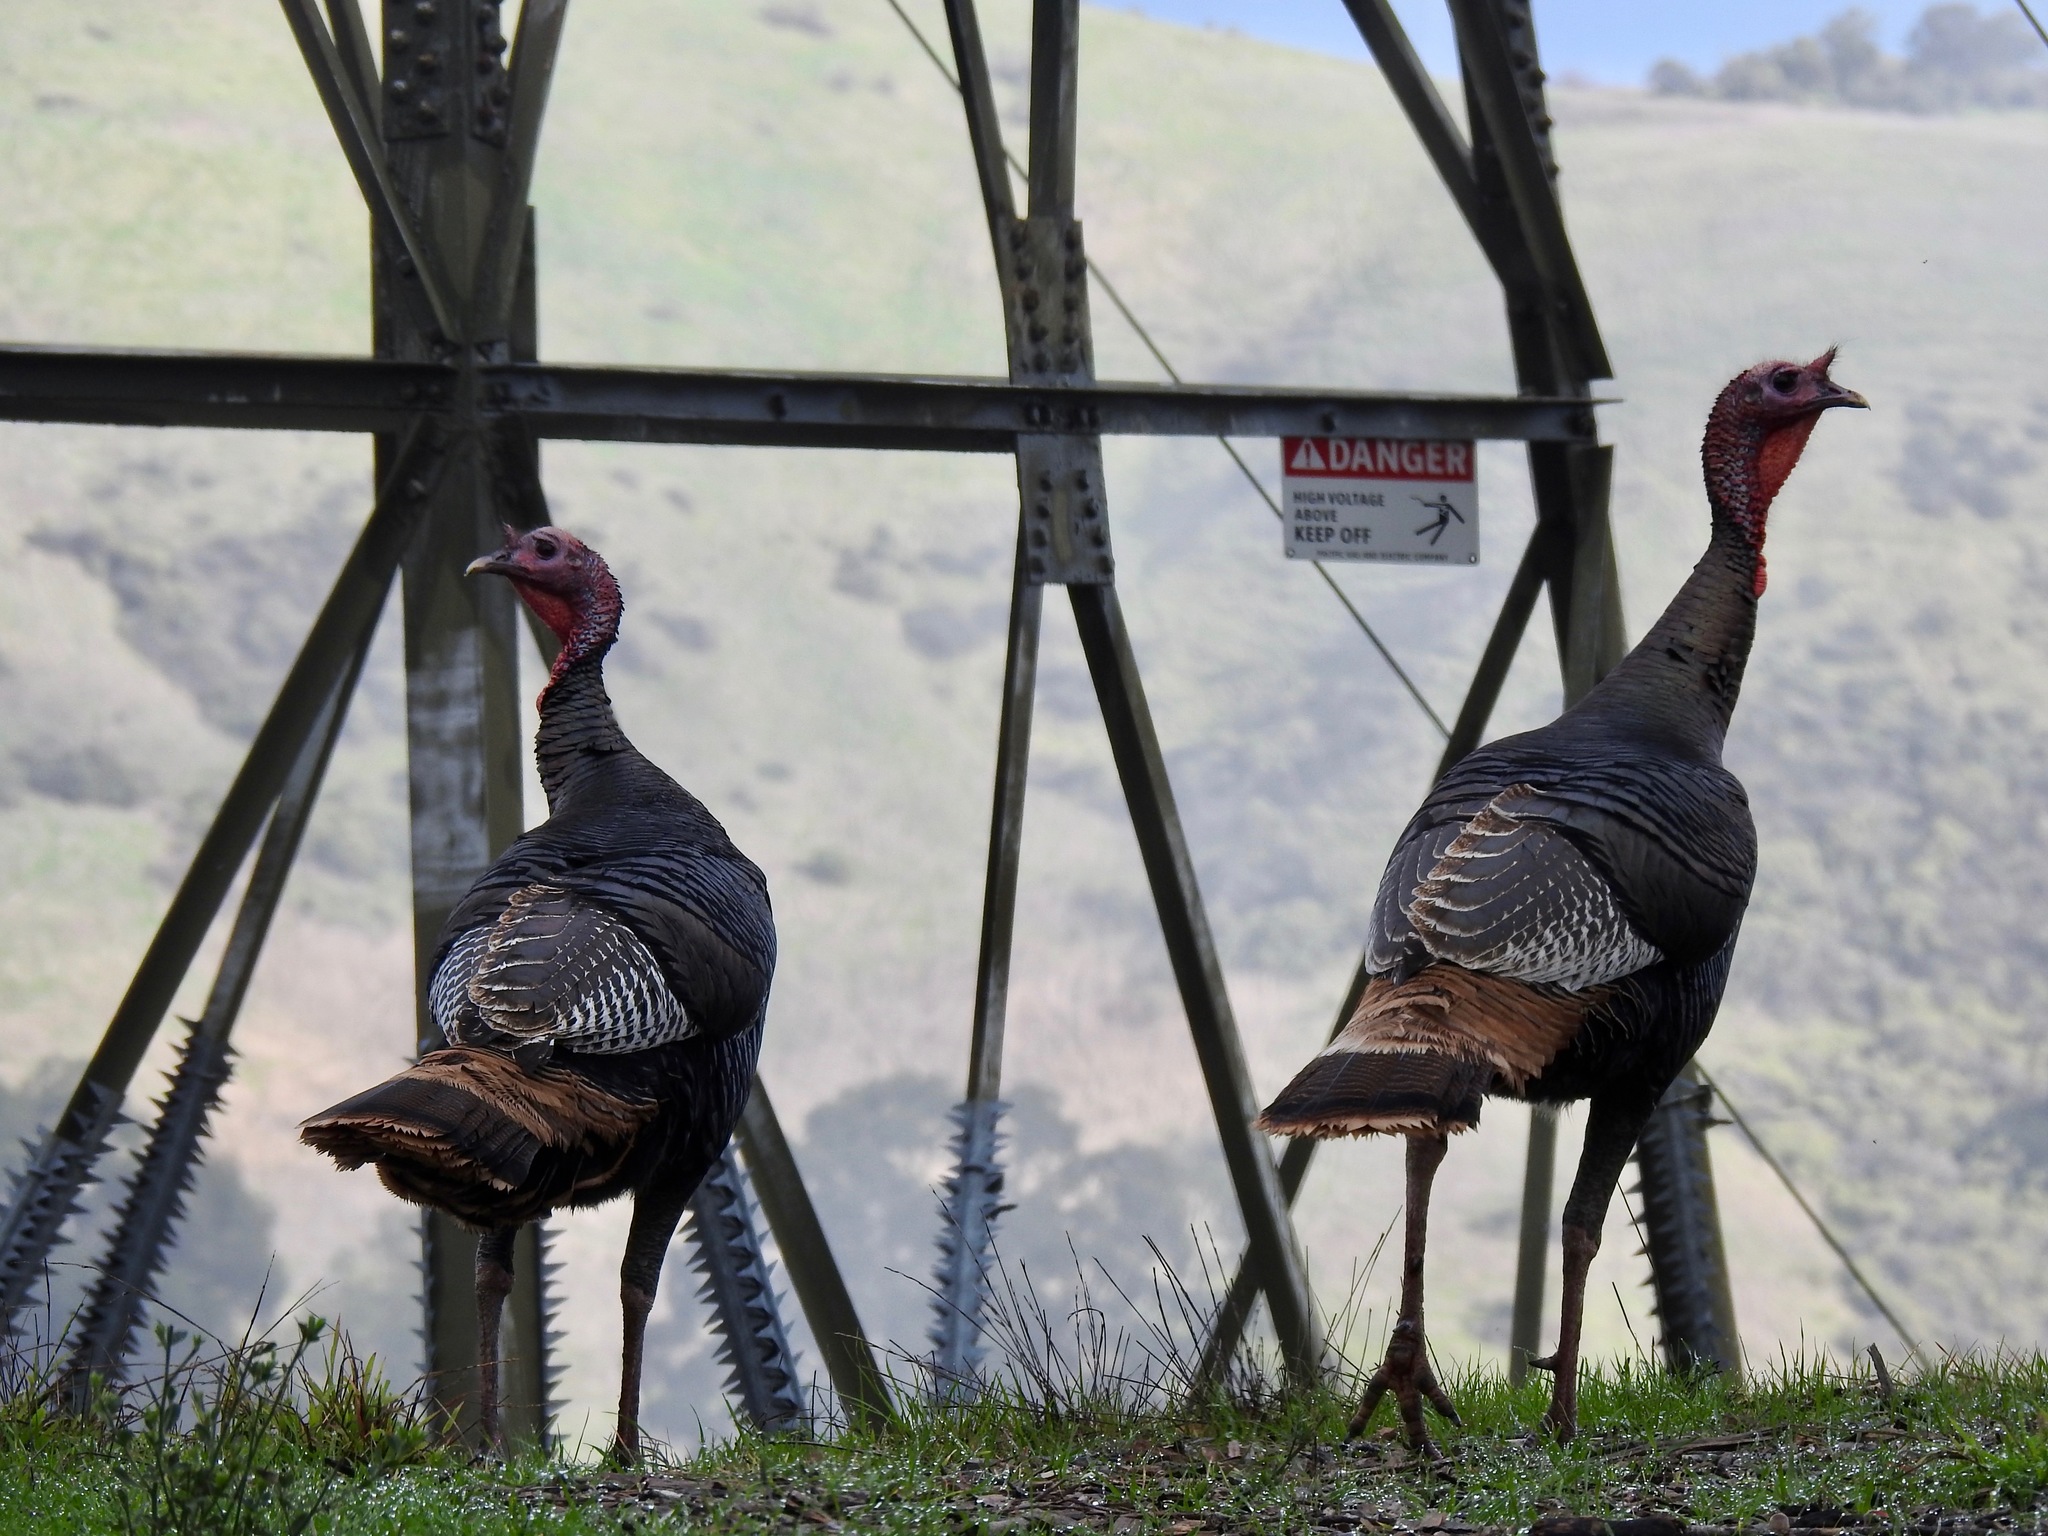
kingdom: Animalia
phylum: Chordata
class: Aves
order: Galliformes
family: Phasianidae
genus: Meleagris
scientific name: Meleagris gallopavo
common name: Wild turkey
